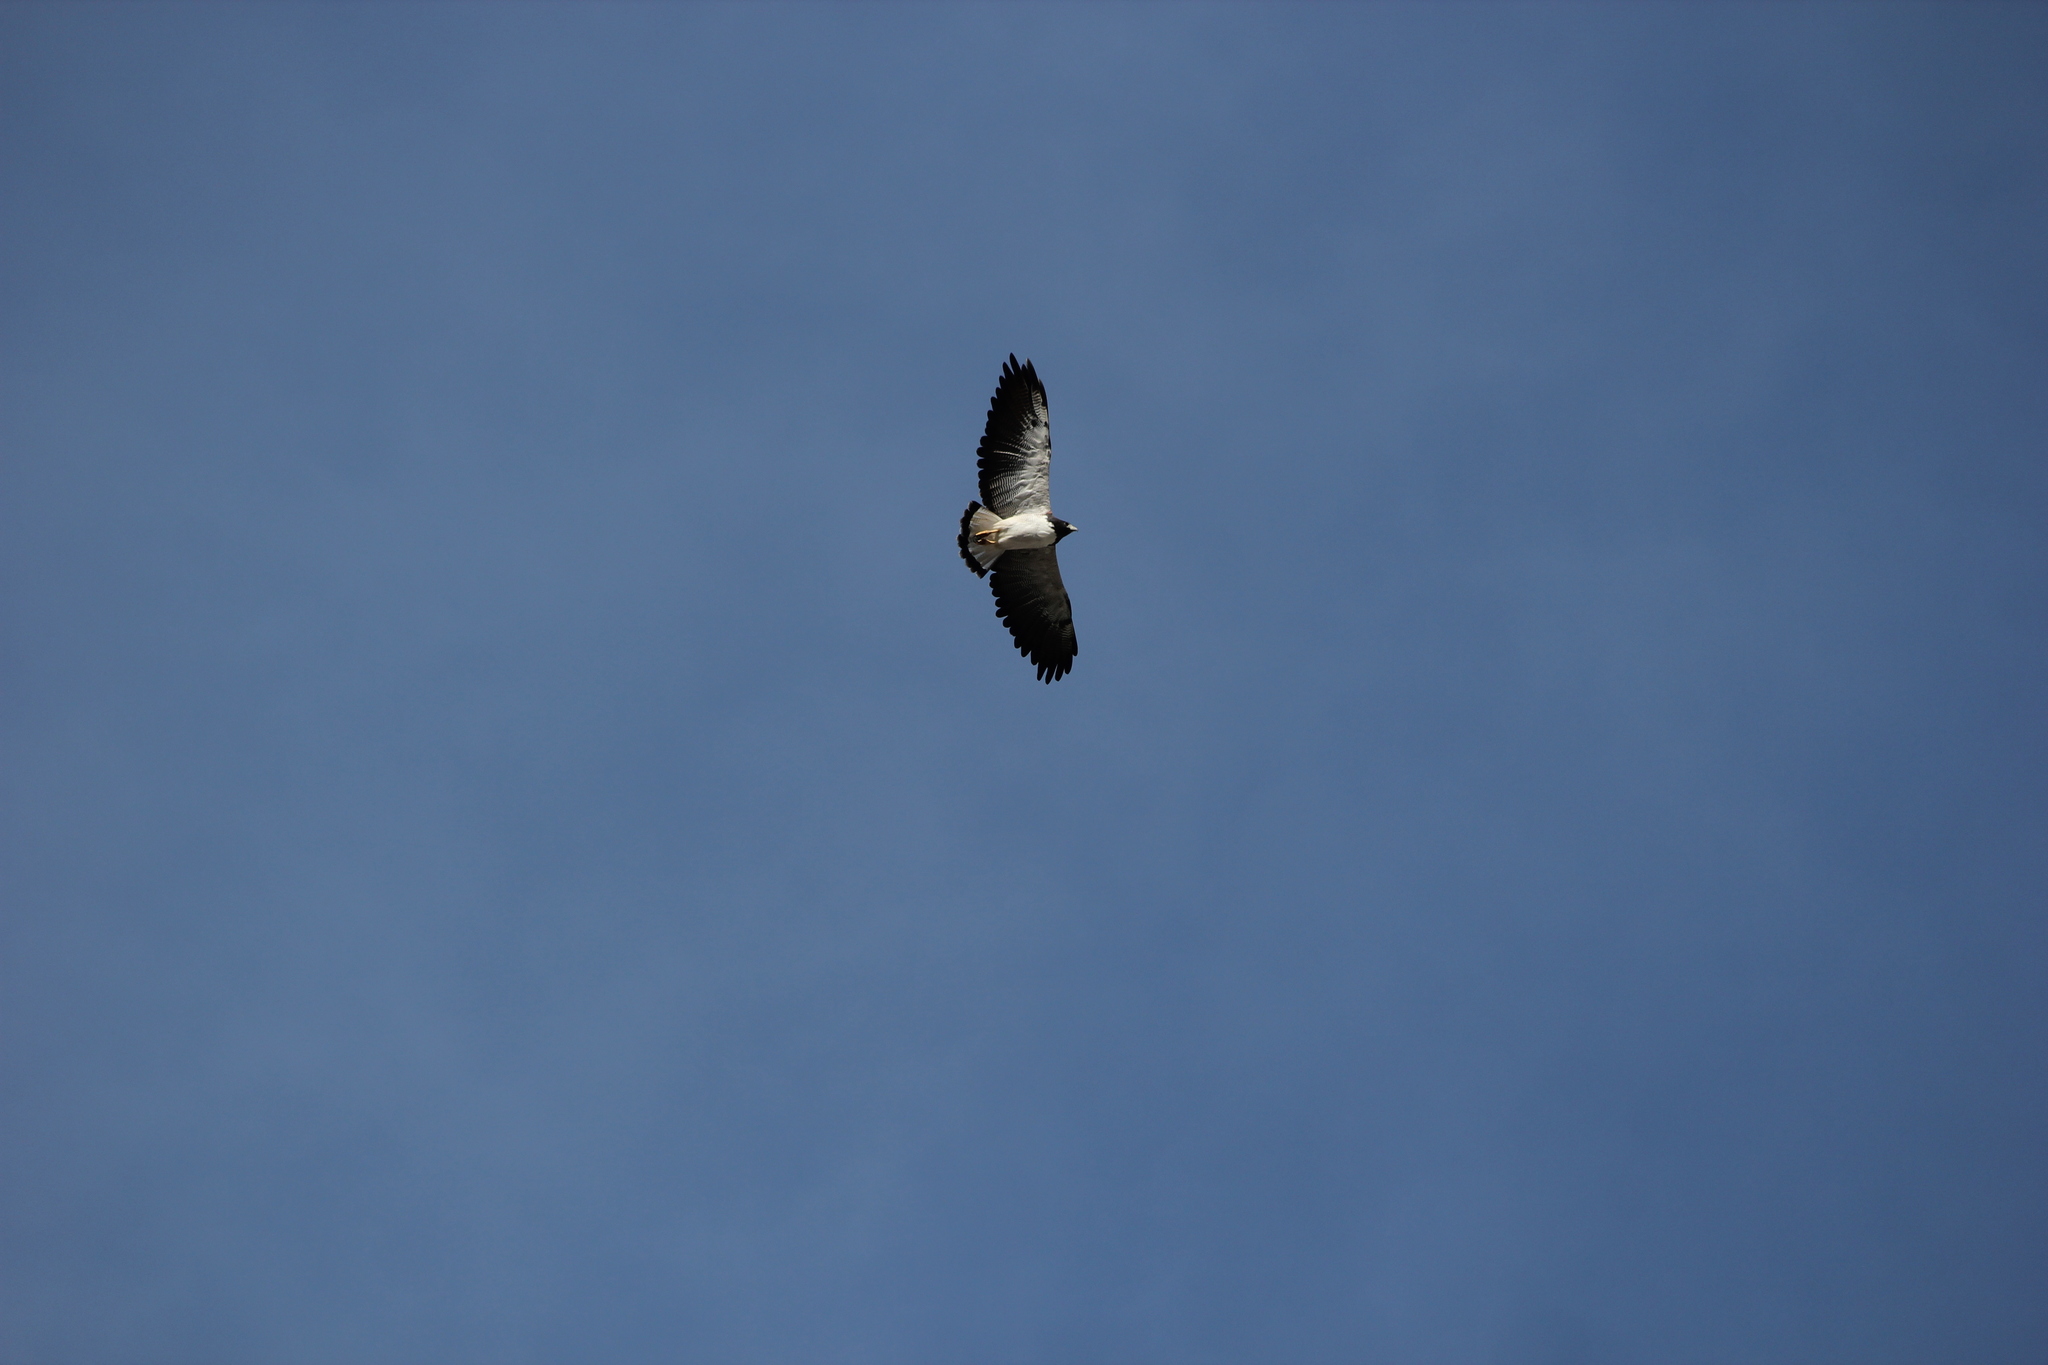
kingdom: Animalia
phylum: Chordata
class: Aves
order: Accipitriformes
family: Accipitridae
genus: Buteo
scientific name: Buteo albicaudatus
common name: White-tailed hawk
